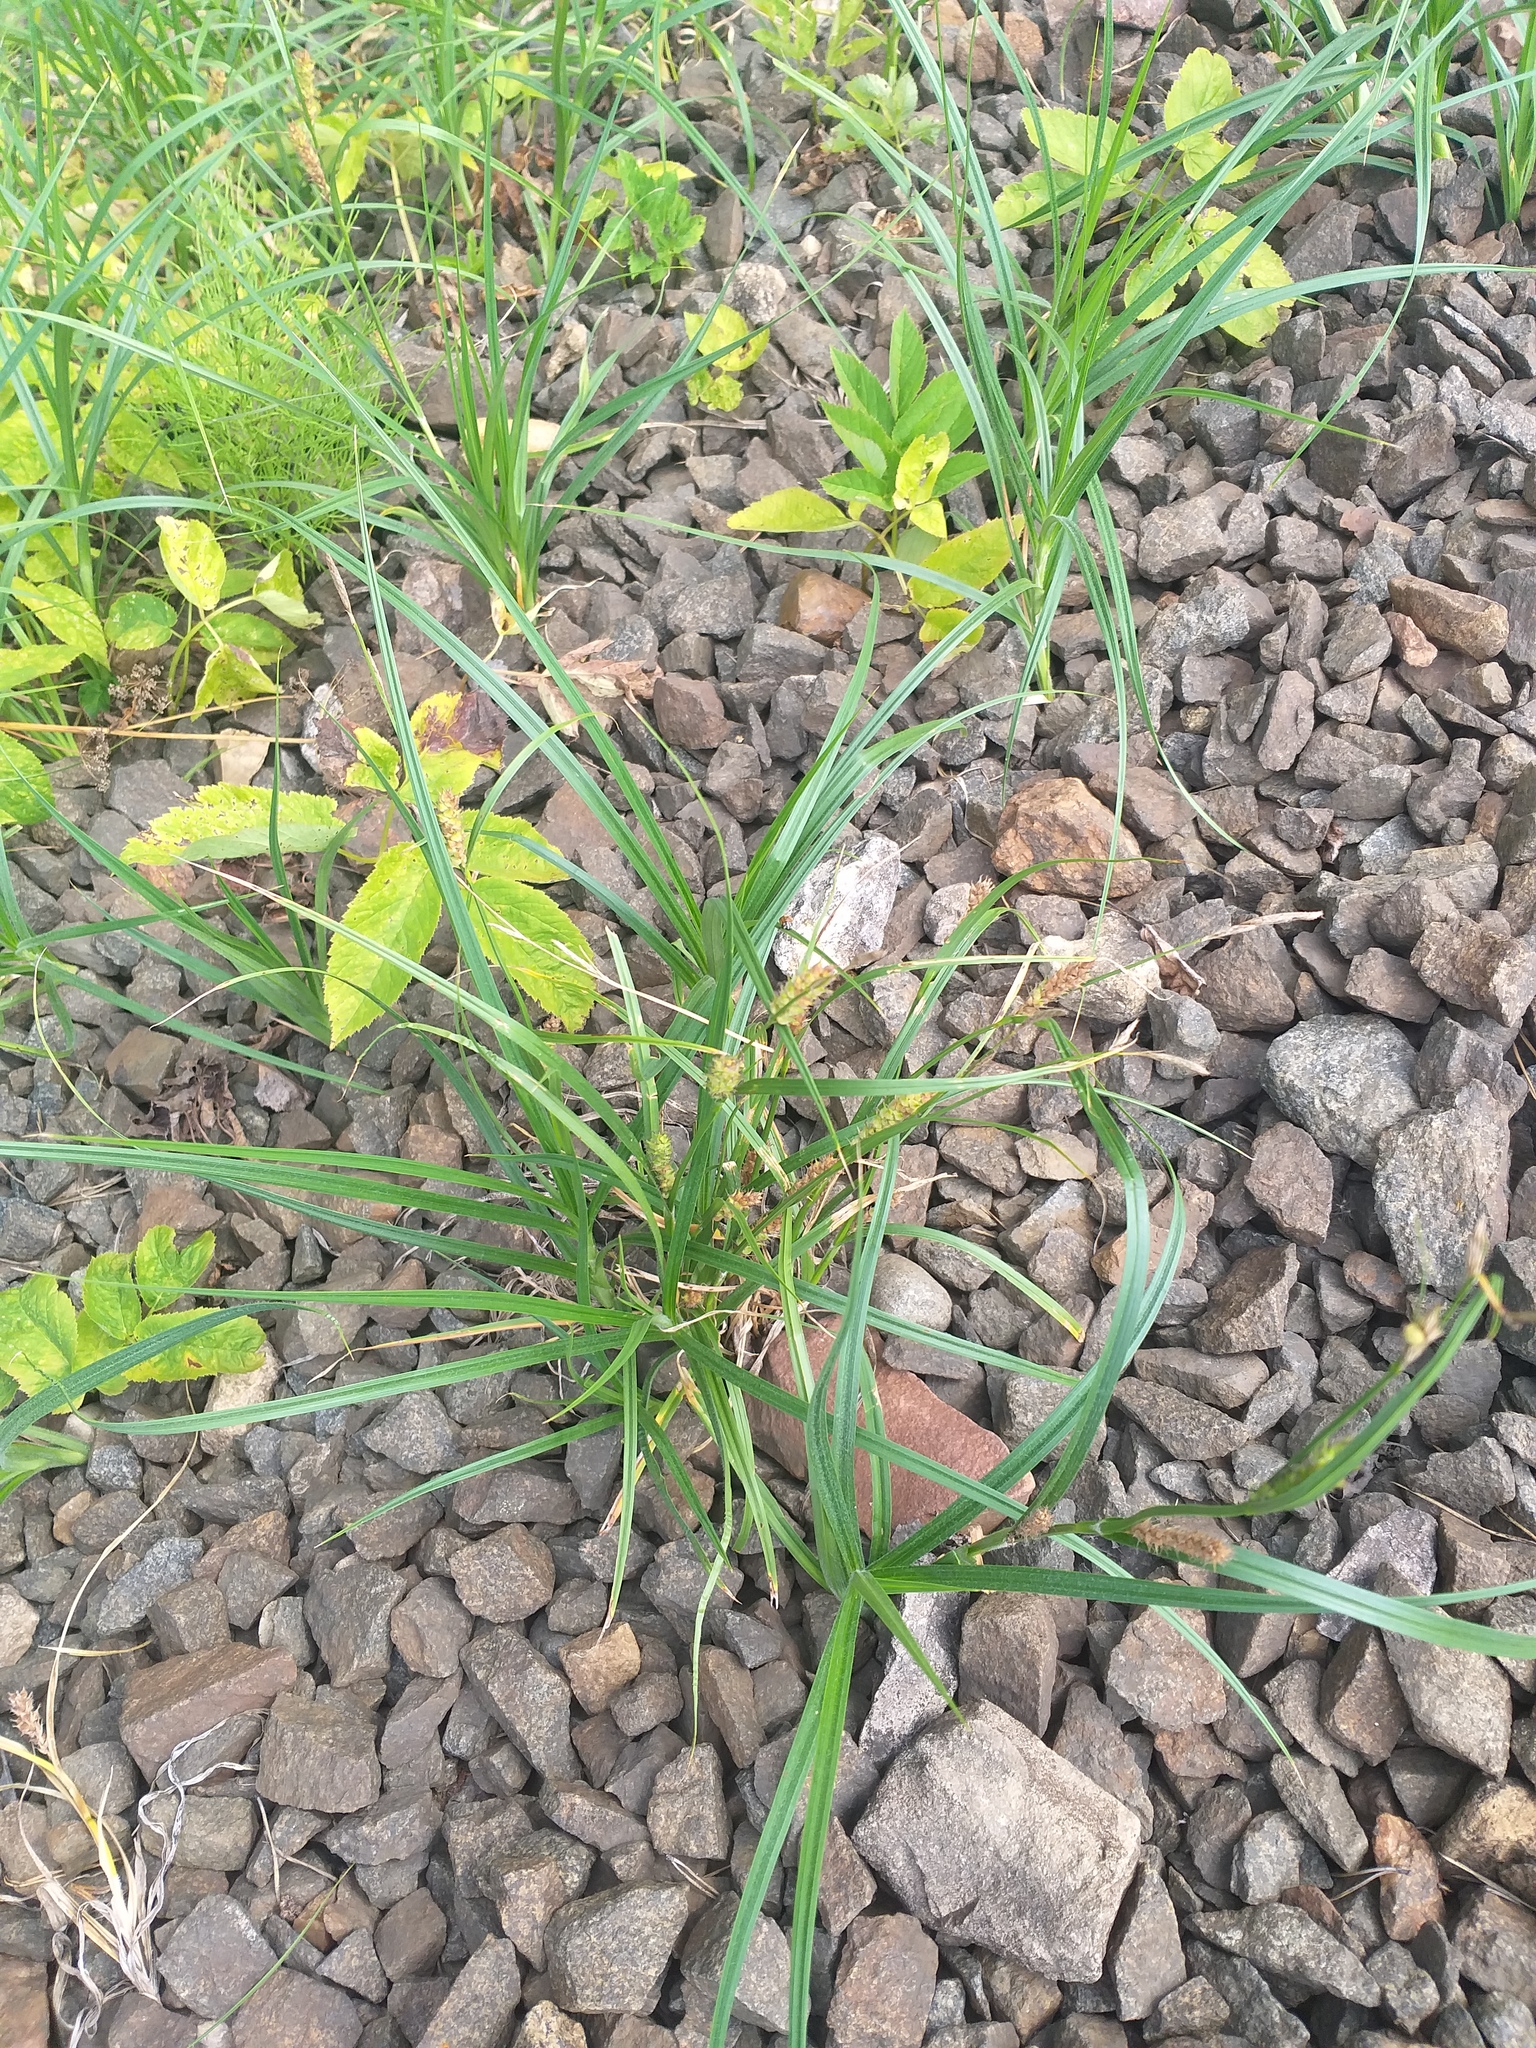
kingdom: Plantae
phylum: Tracheophyta
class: Liliopsida
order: Poales
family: Cyperaceae
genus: Carex
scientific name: Carex hirta
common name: Hairy sedge
